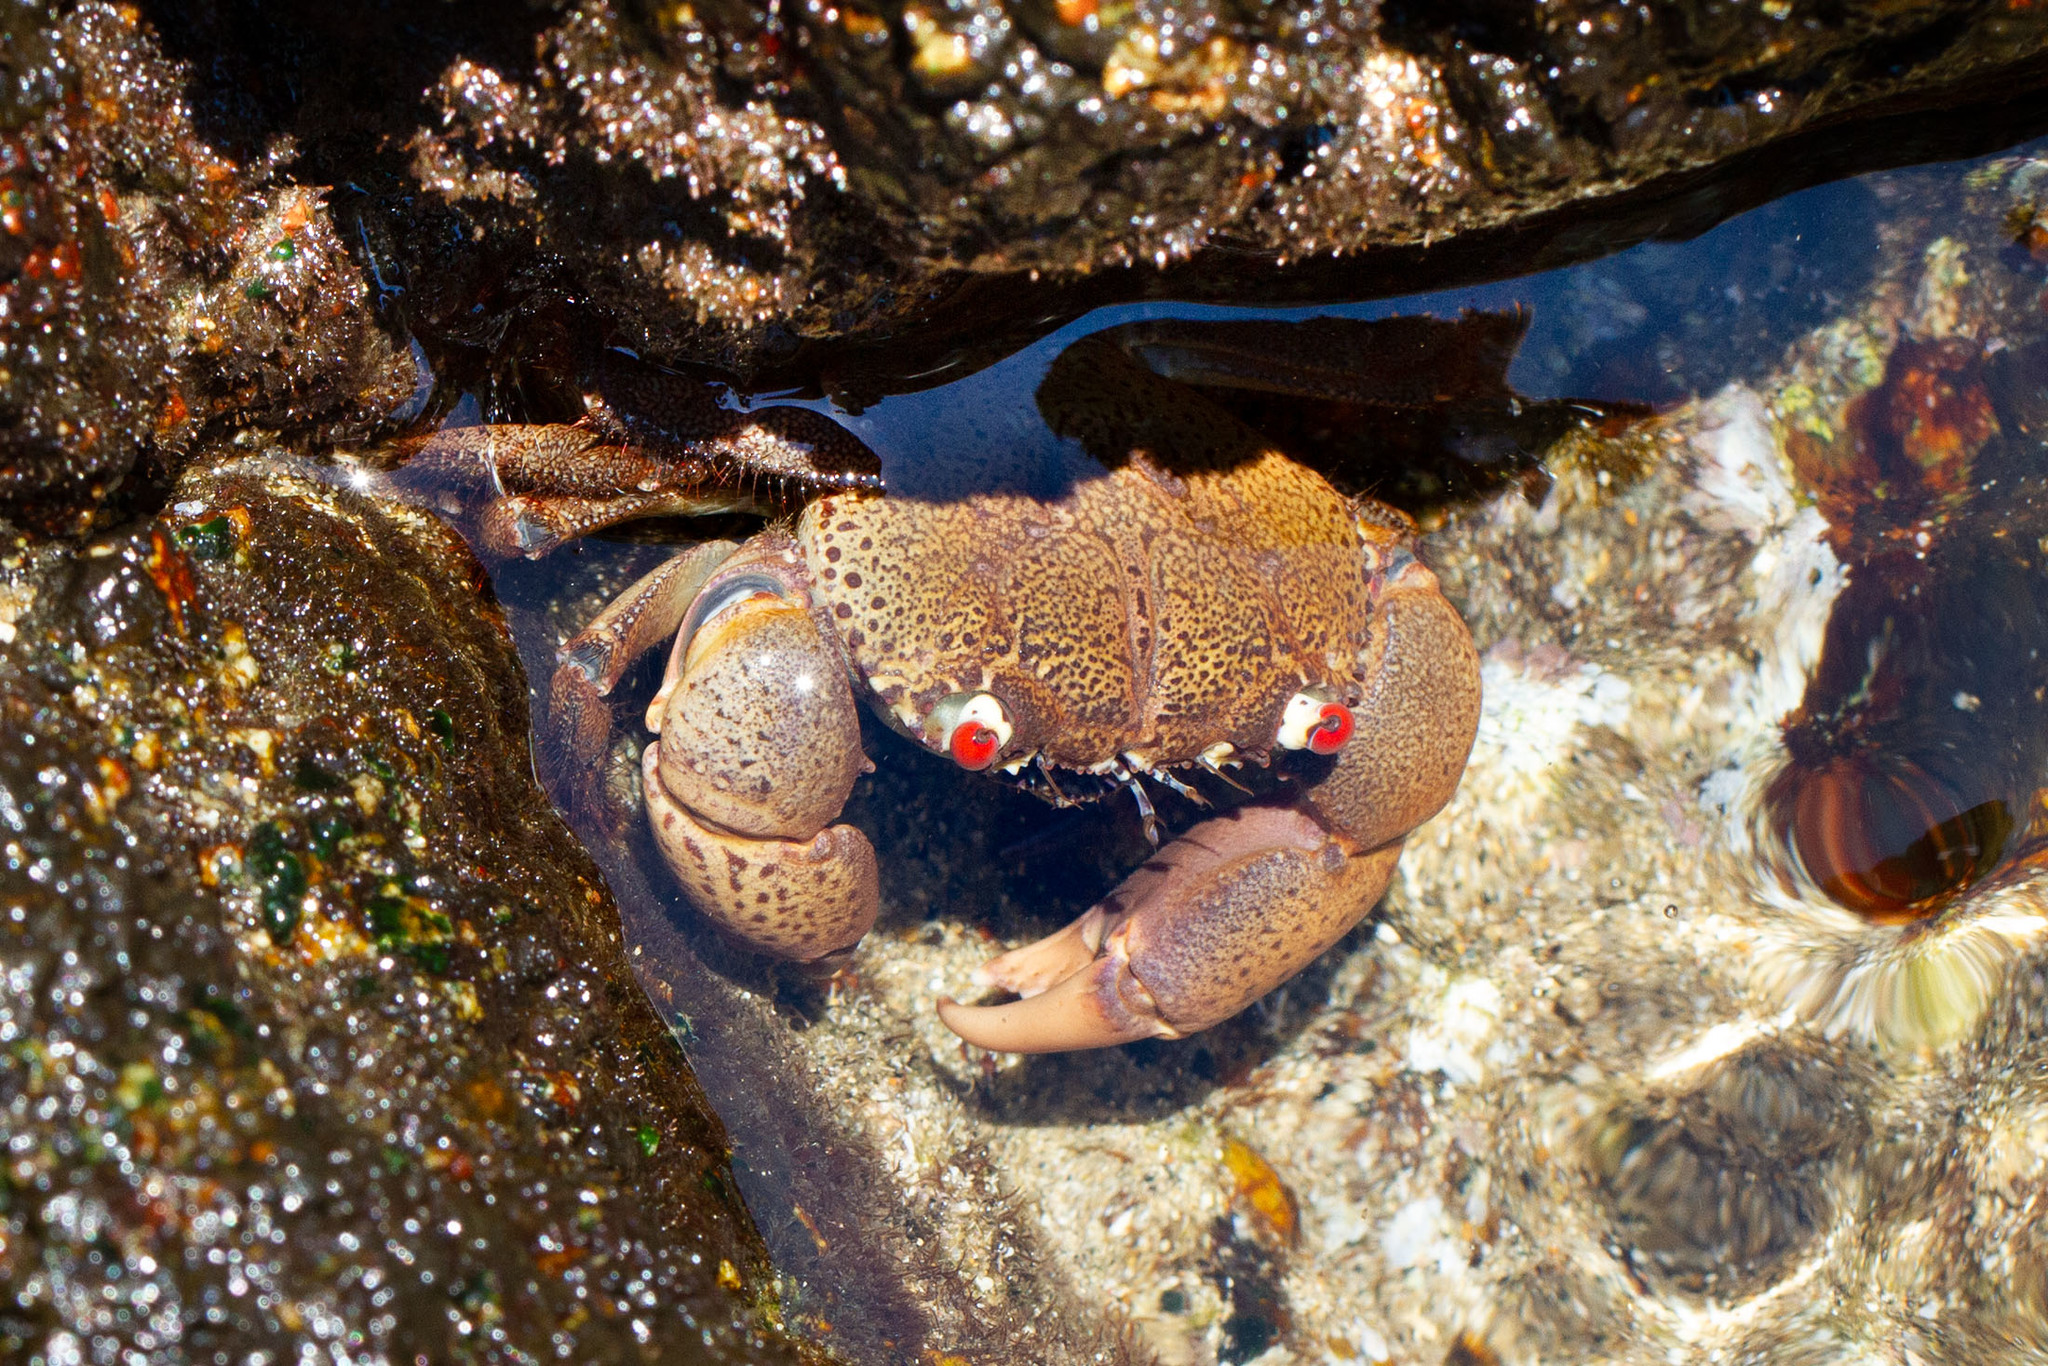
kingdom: Animalia
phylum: Arthropoda
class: Malacostraca
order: Decapoda
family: Eriphiidae
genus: Eriphia
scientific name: Eriphia sebana
